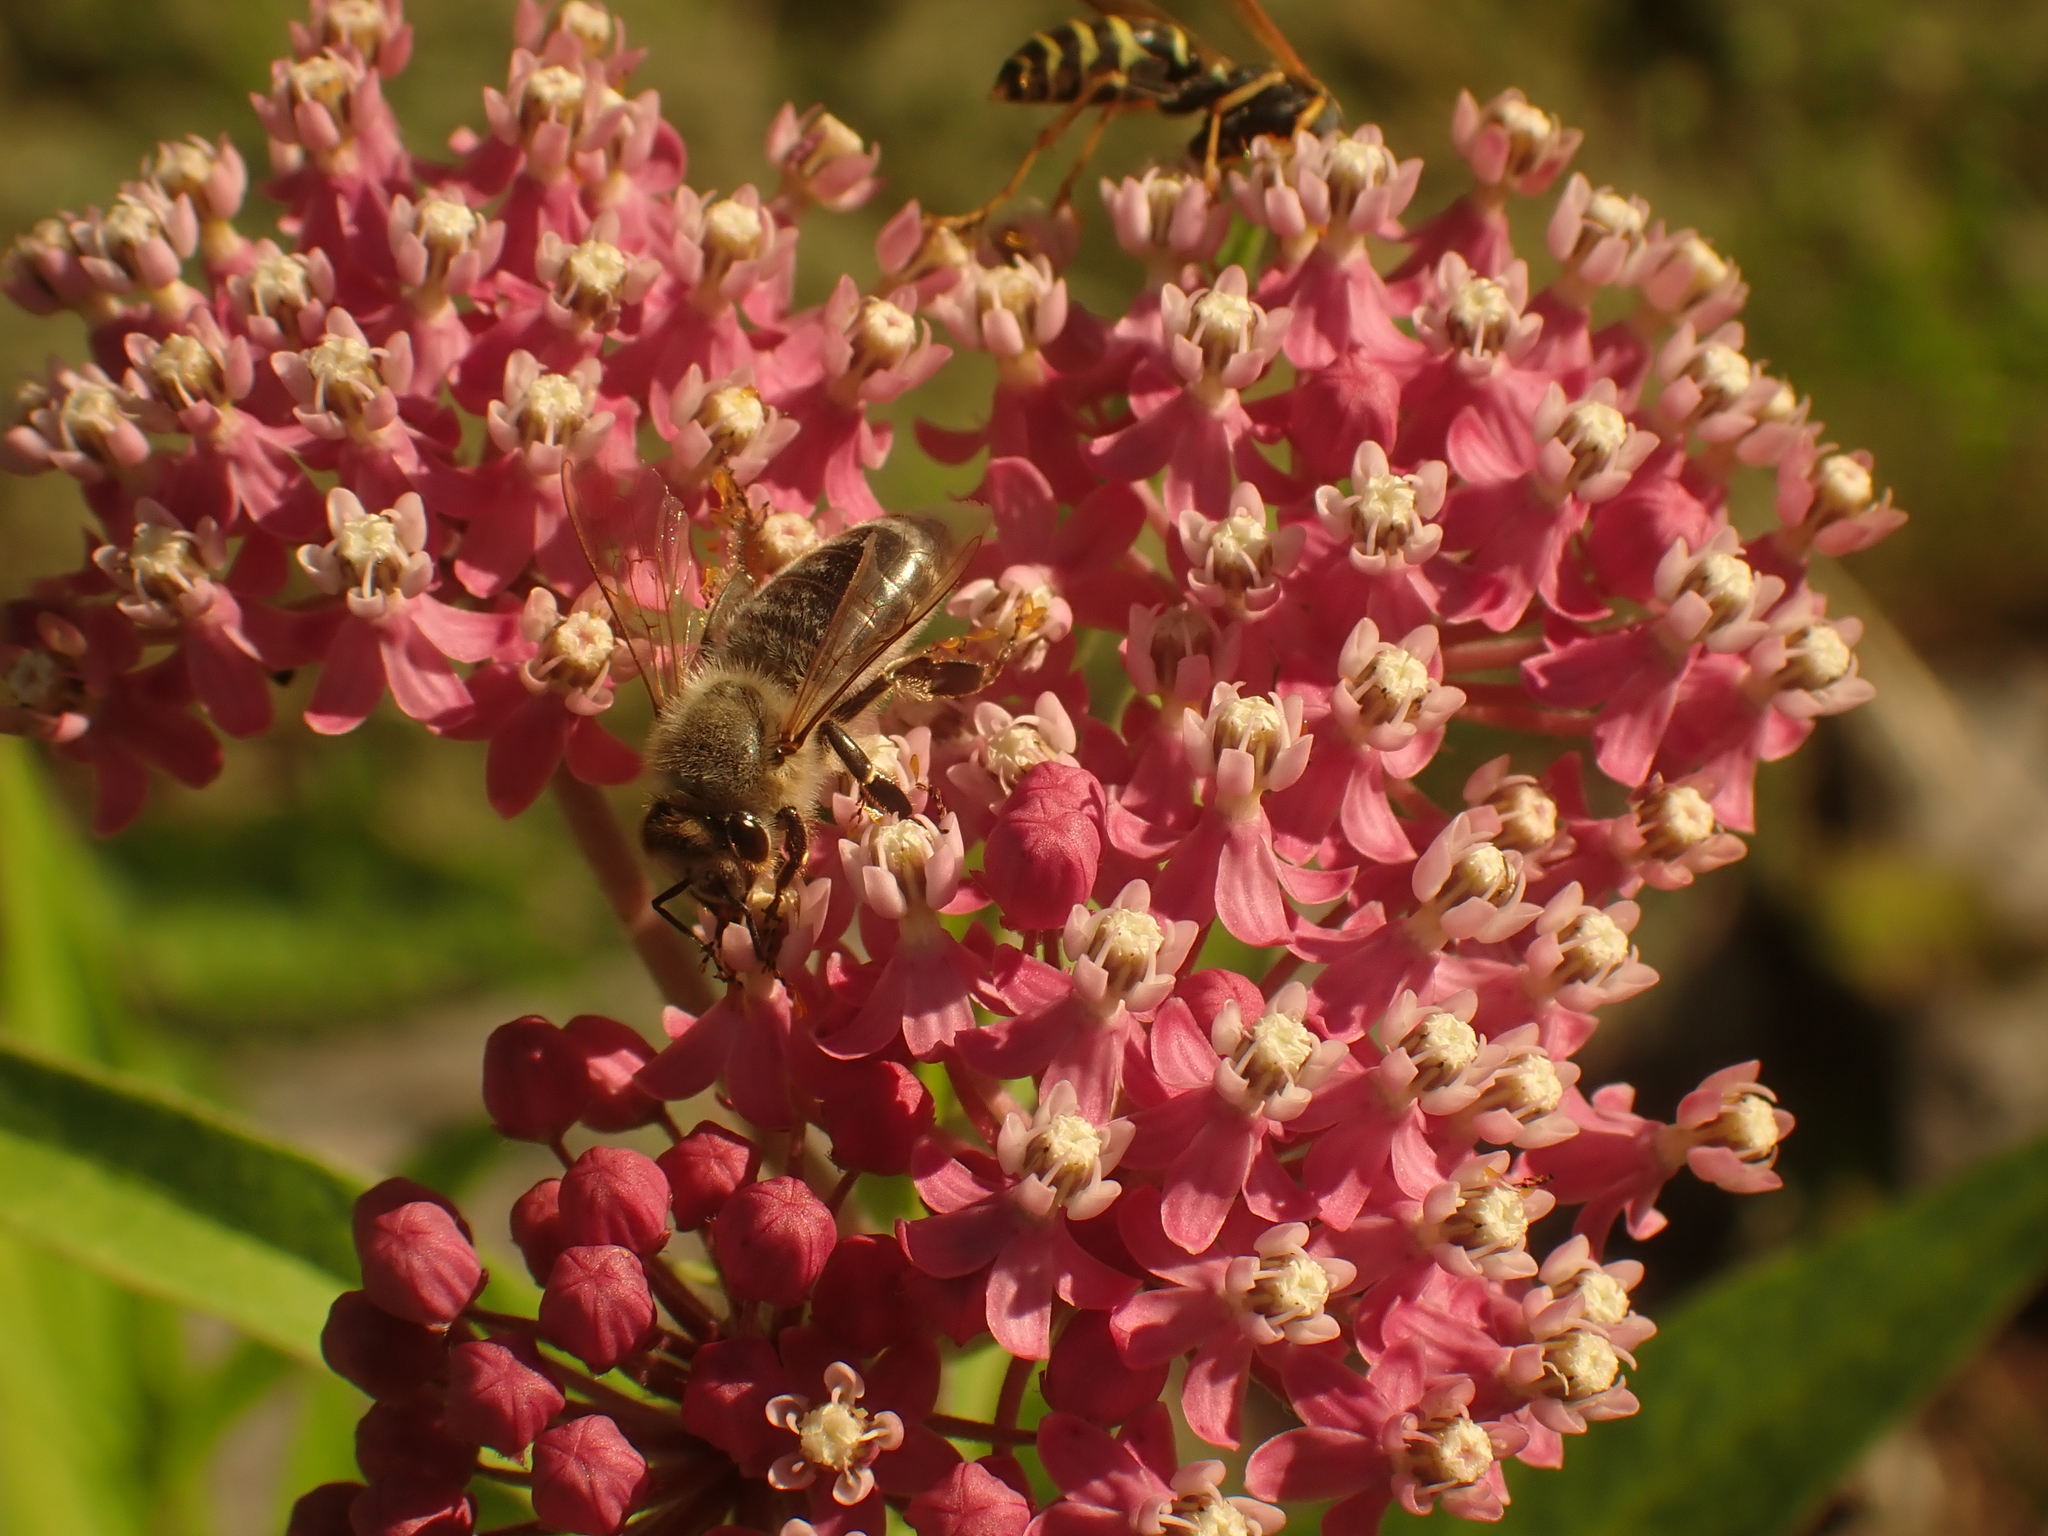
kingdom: Animalia
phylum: Arthropoda
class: Insecta
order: Hymenoptera
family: Apidae
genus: Apis
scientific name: Apis mellifera
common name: Honey bee
